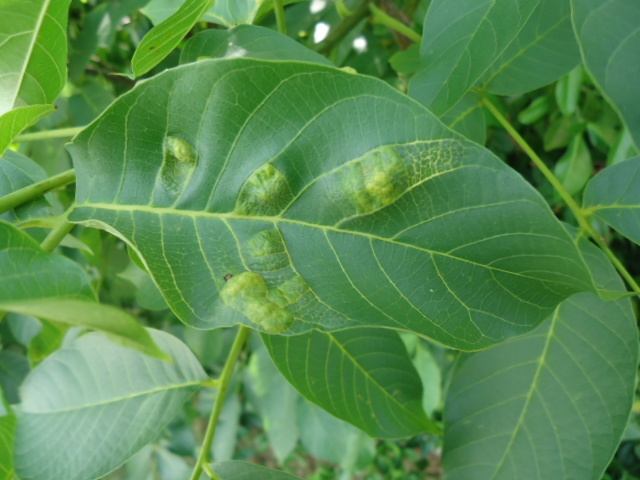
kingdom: Animalia
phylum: Arthropoda
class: Arachnida
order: Trombidiformes
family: Eriophyidae
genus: Aceria
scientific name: Aceria erinea
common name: Persian walnut erineum mite
